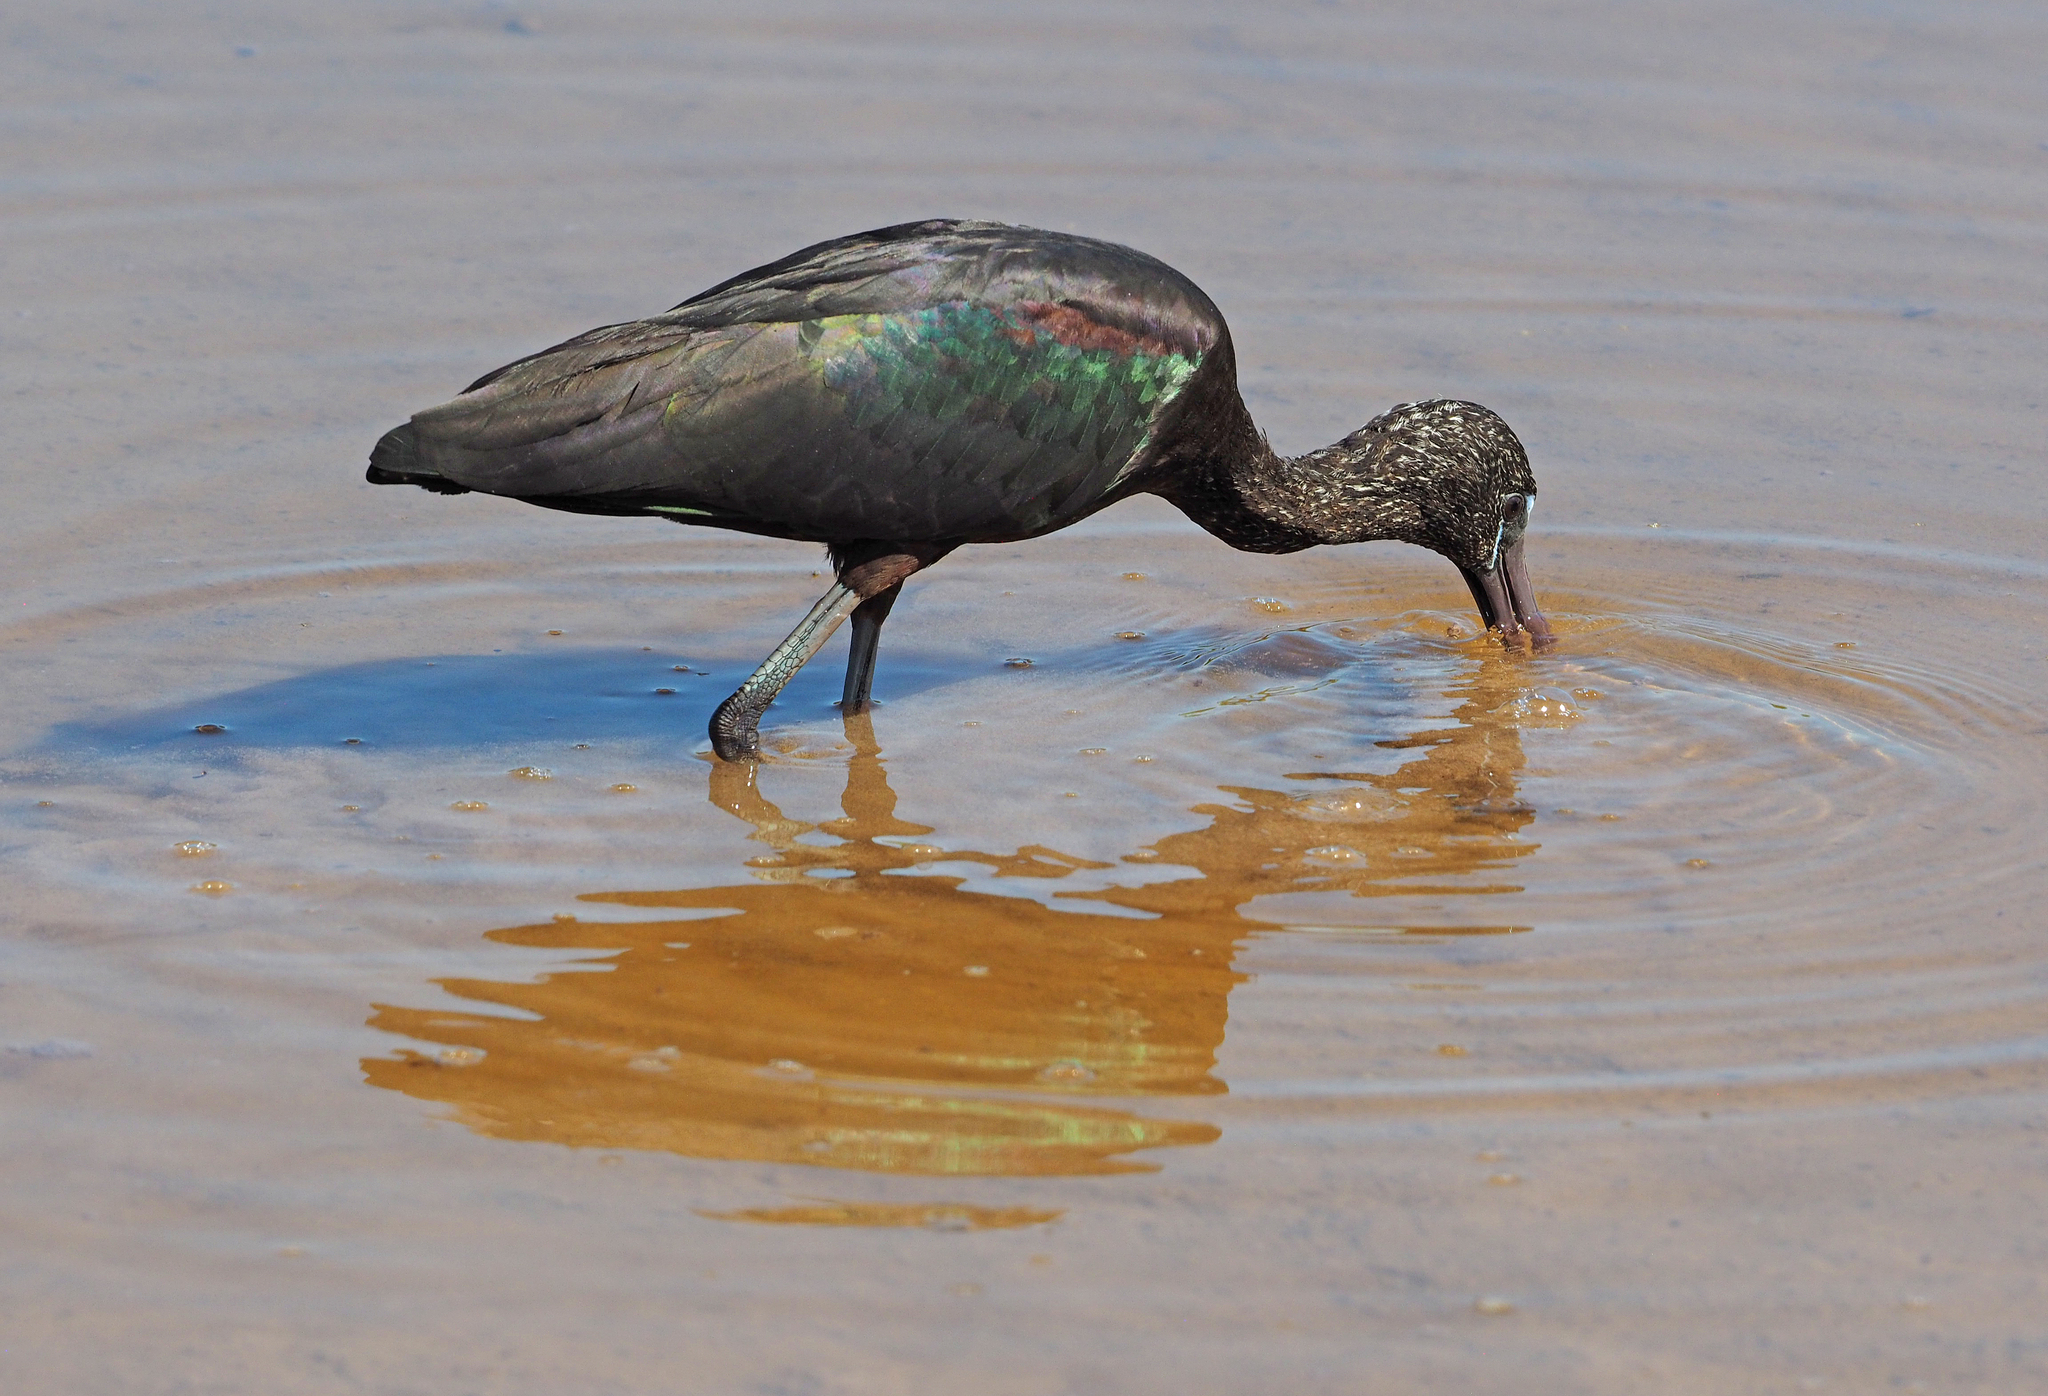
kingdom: Animalia
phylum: Chordata
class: Aves
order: Pelecaniformes
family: Threskiornithidae
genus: Plegadis
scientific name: Plegadis falcinellus
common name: Glossy ibis
